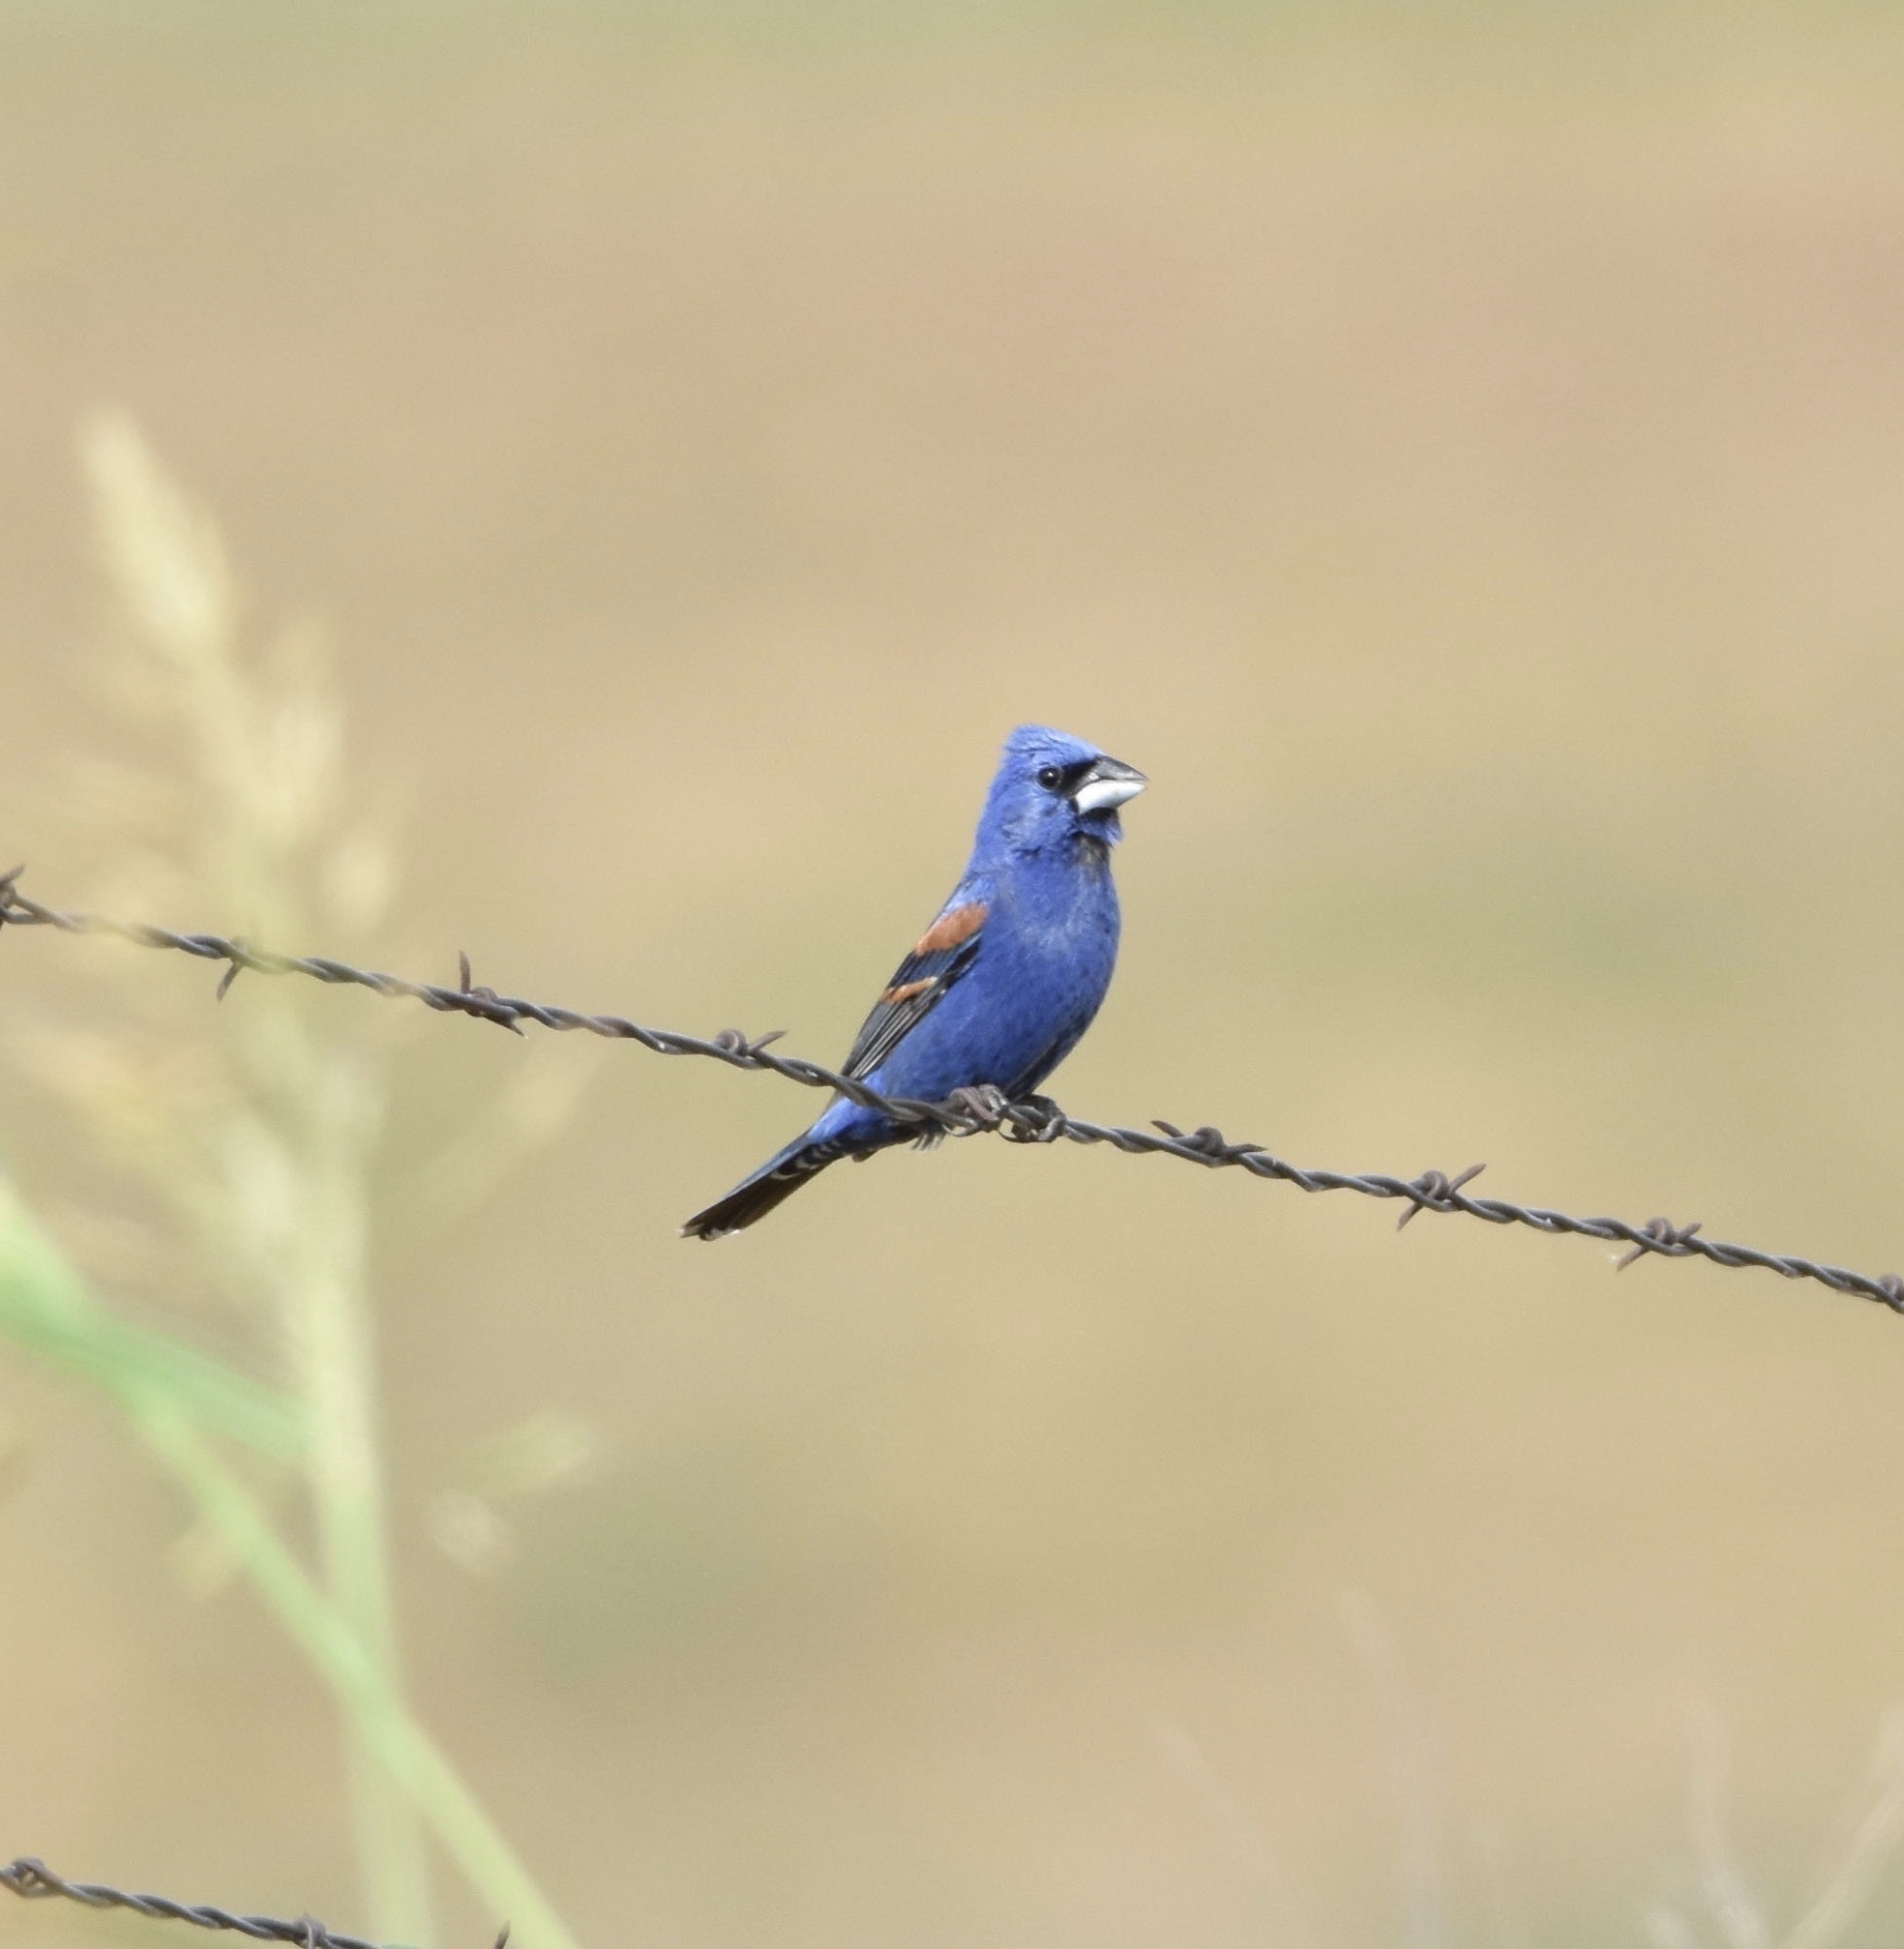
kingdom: Animalia
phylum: Chordata
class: Aves
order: Passeriformes
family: Cardinalidae
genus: Passerina
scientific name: Passerina caerulea
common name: Blue grosbeak
